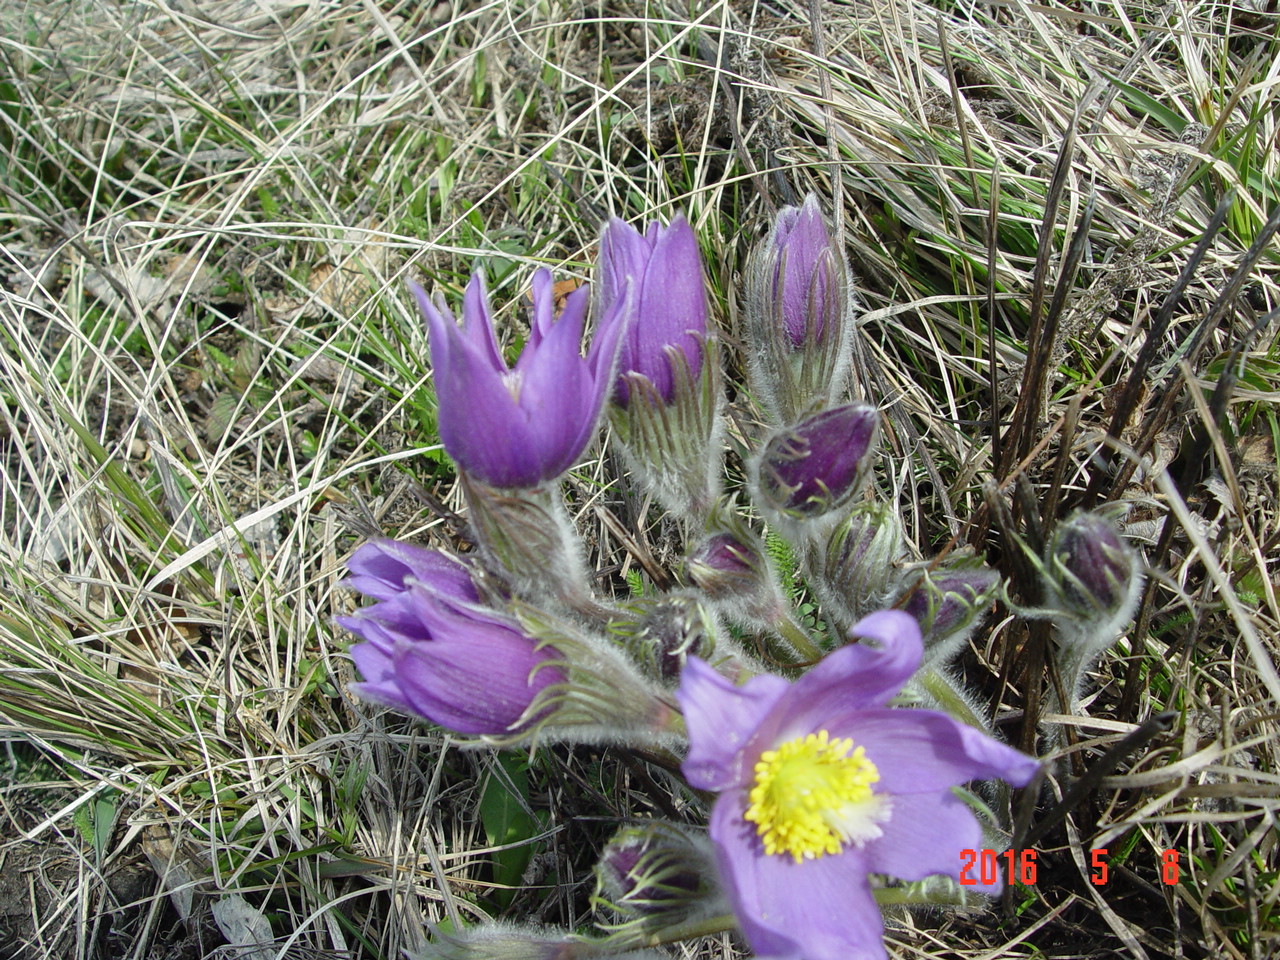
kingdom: Plantae
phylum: Tracheophyta
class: Magnoliopsida
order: Ranunculales
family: Ranunculaceae
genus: Pulsatilla
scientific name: Pulsatilla patens
